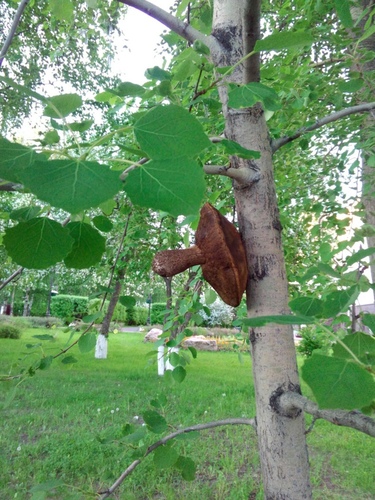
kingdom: Fungi
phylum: Basidiomycota
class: Agaricomycetes
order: Boletales
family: Boletaceae
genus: Leccinum
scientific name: Leccinum
